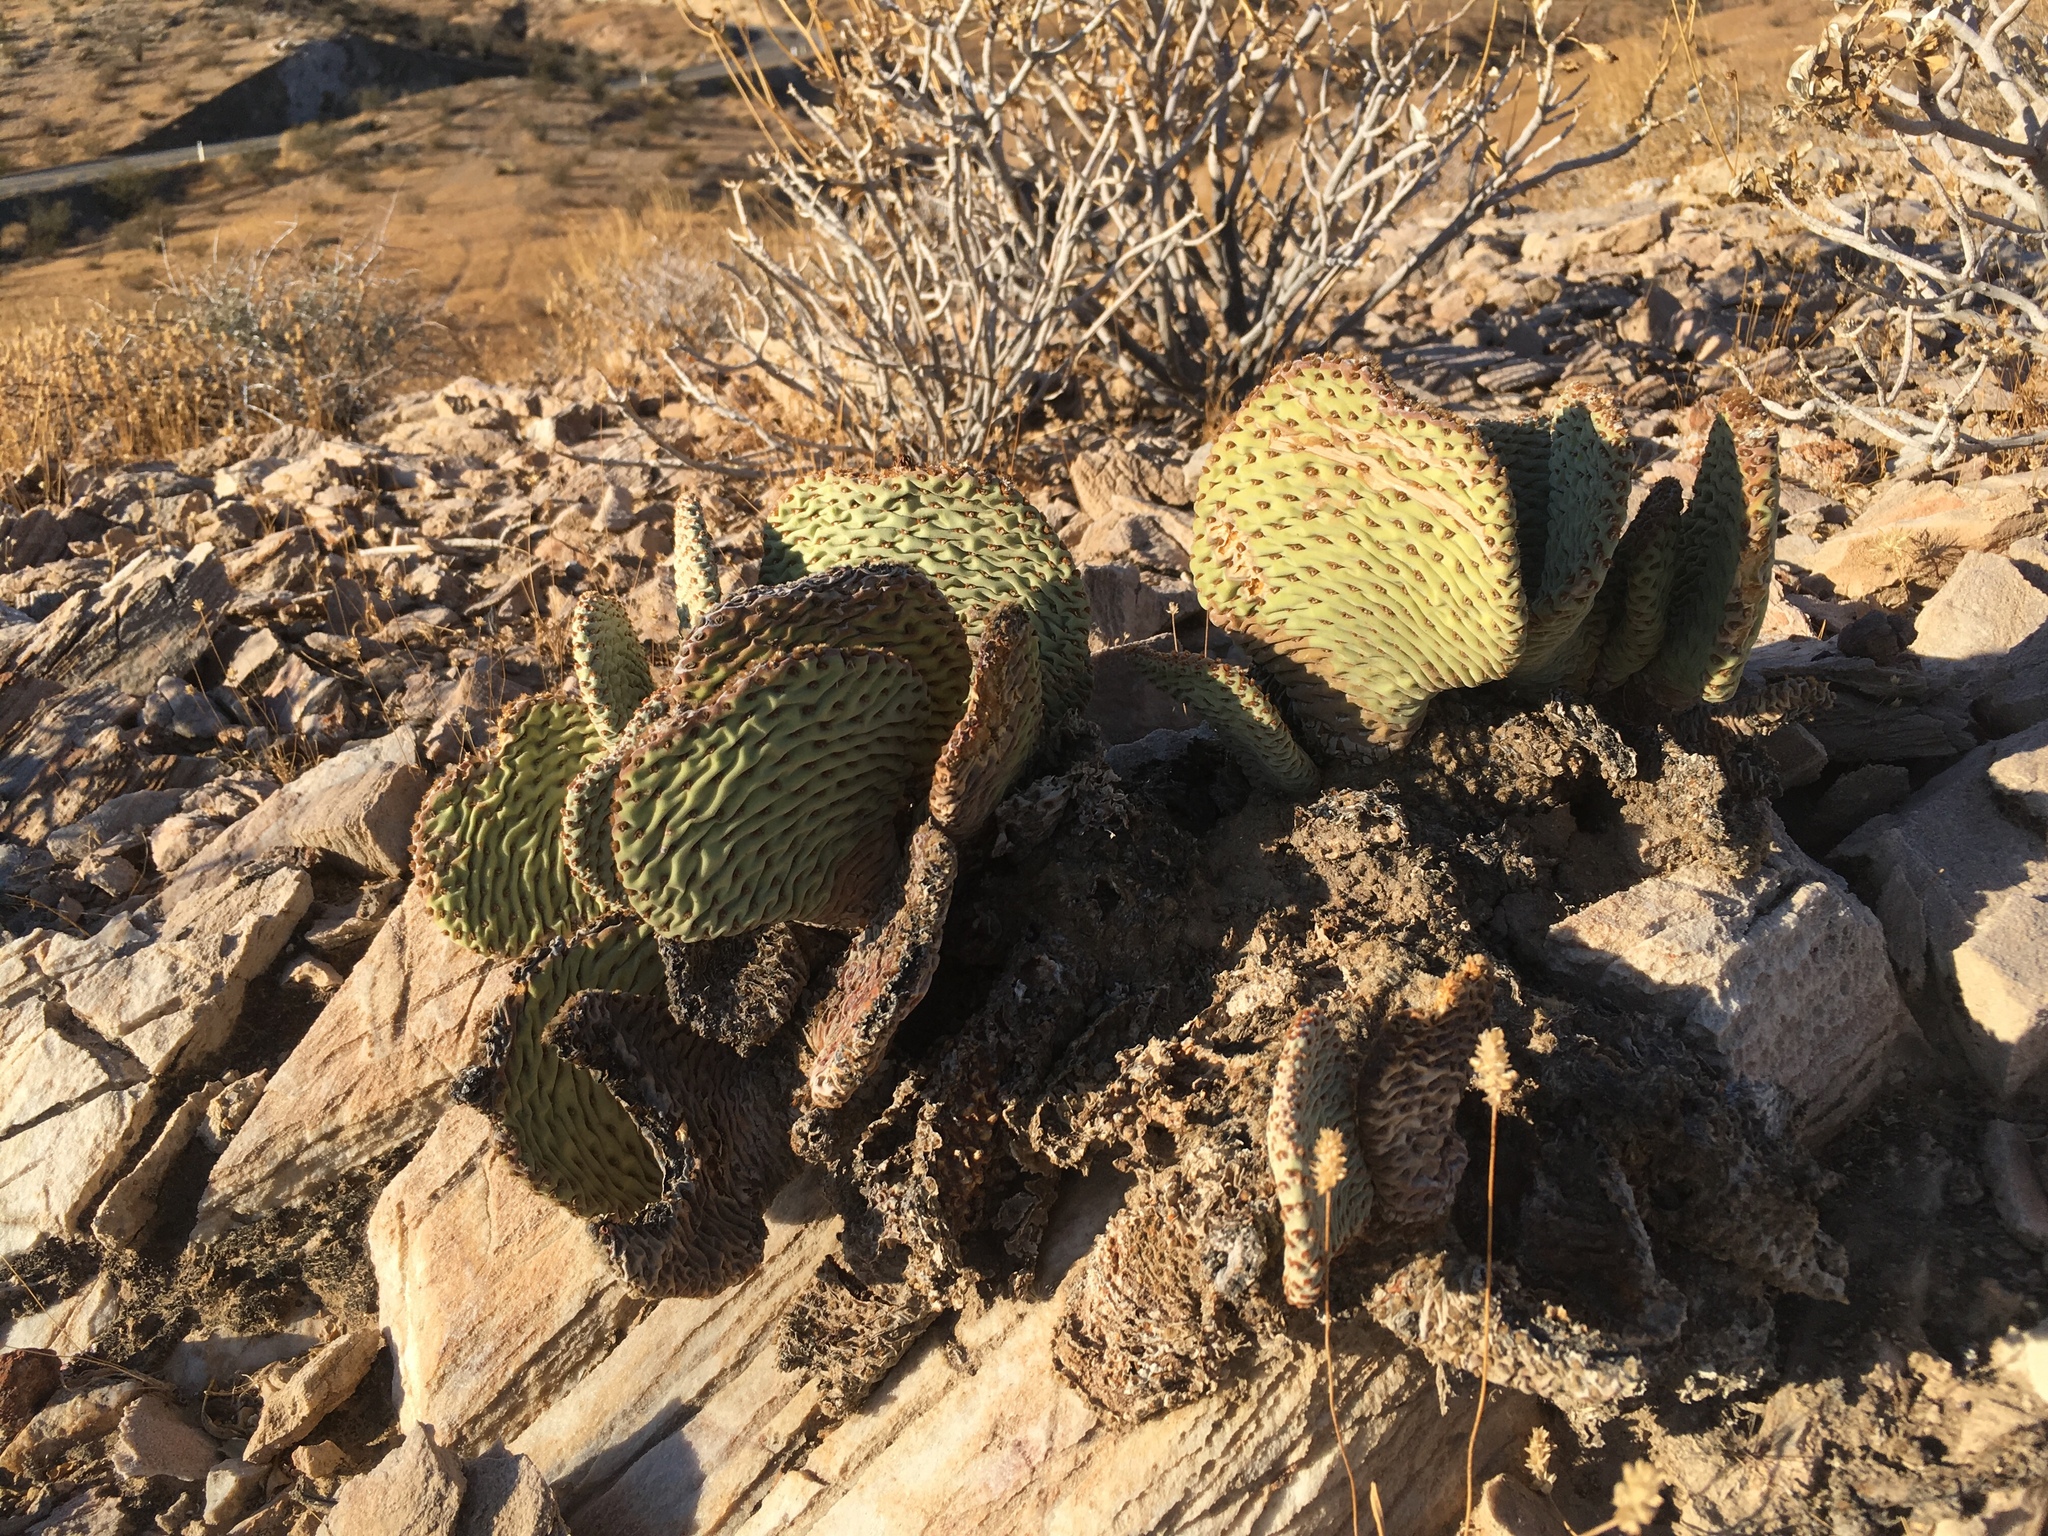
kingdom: Plantae
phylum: Tracheophyta
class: Magnoliopsida
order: Caryophyllales
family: Cactaceae
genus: Opuntia
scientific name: Opuntia basilaris
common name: Beavertail prickly-pear
